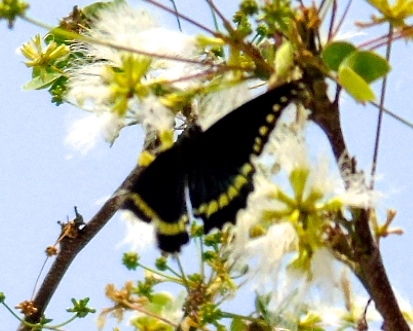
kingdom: Animalia
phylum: Arthropoda
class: Insecta
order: Lepidoptera
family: Papilionidae
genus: Battus
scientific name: Battus polydamas
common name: Polydamas swallowtail
